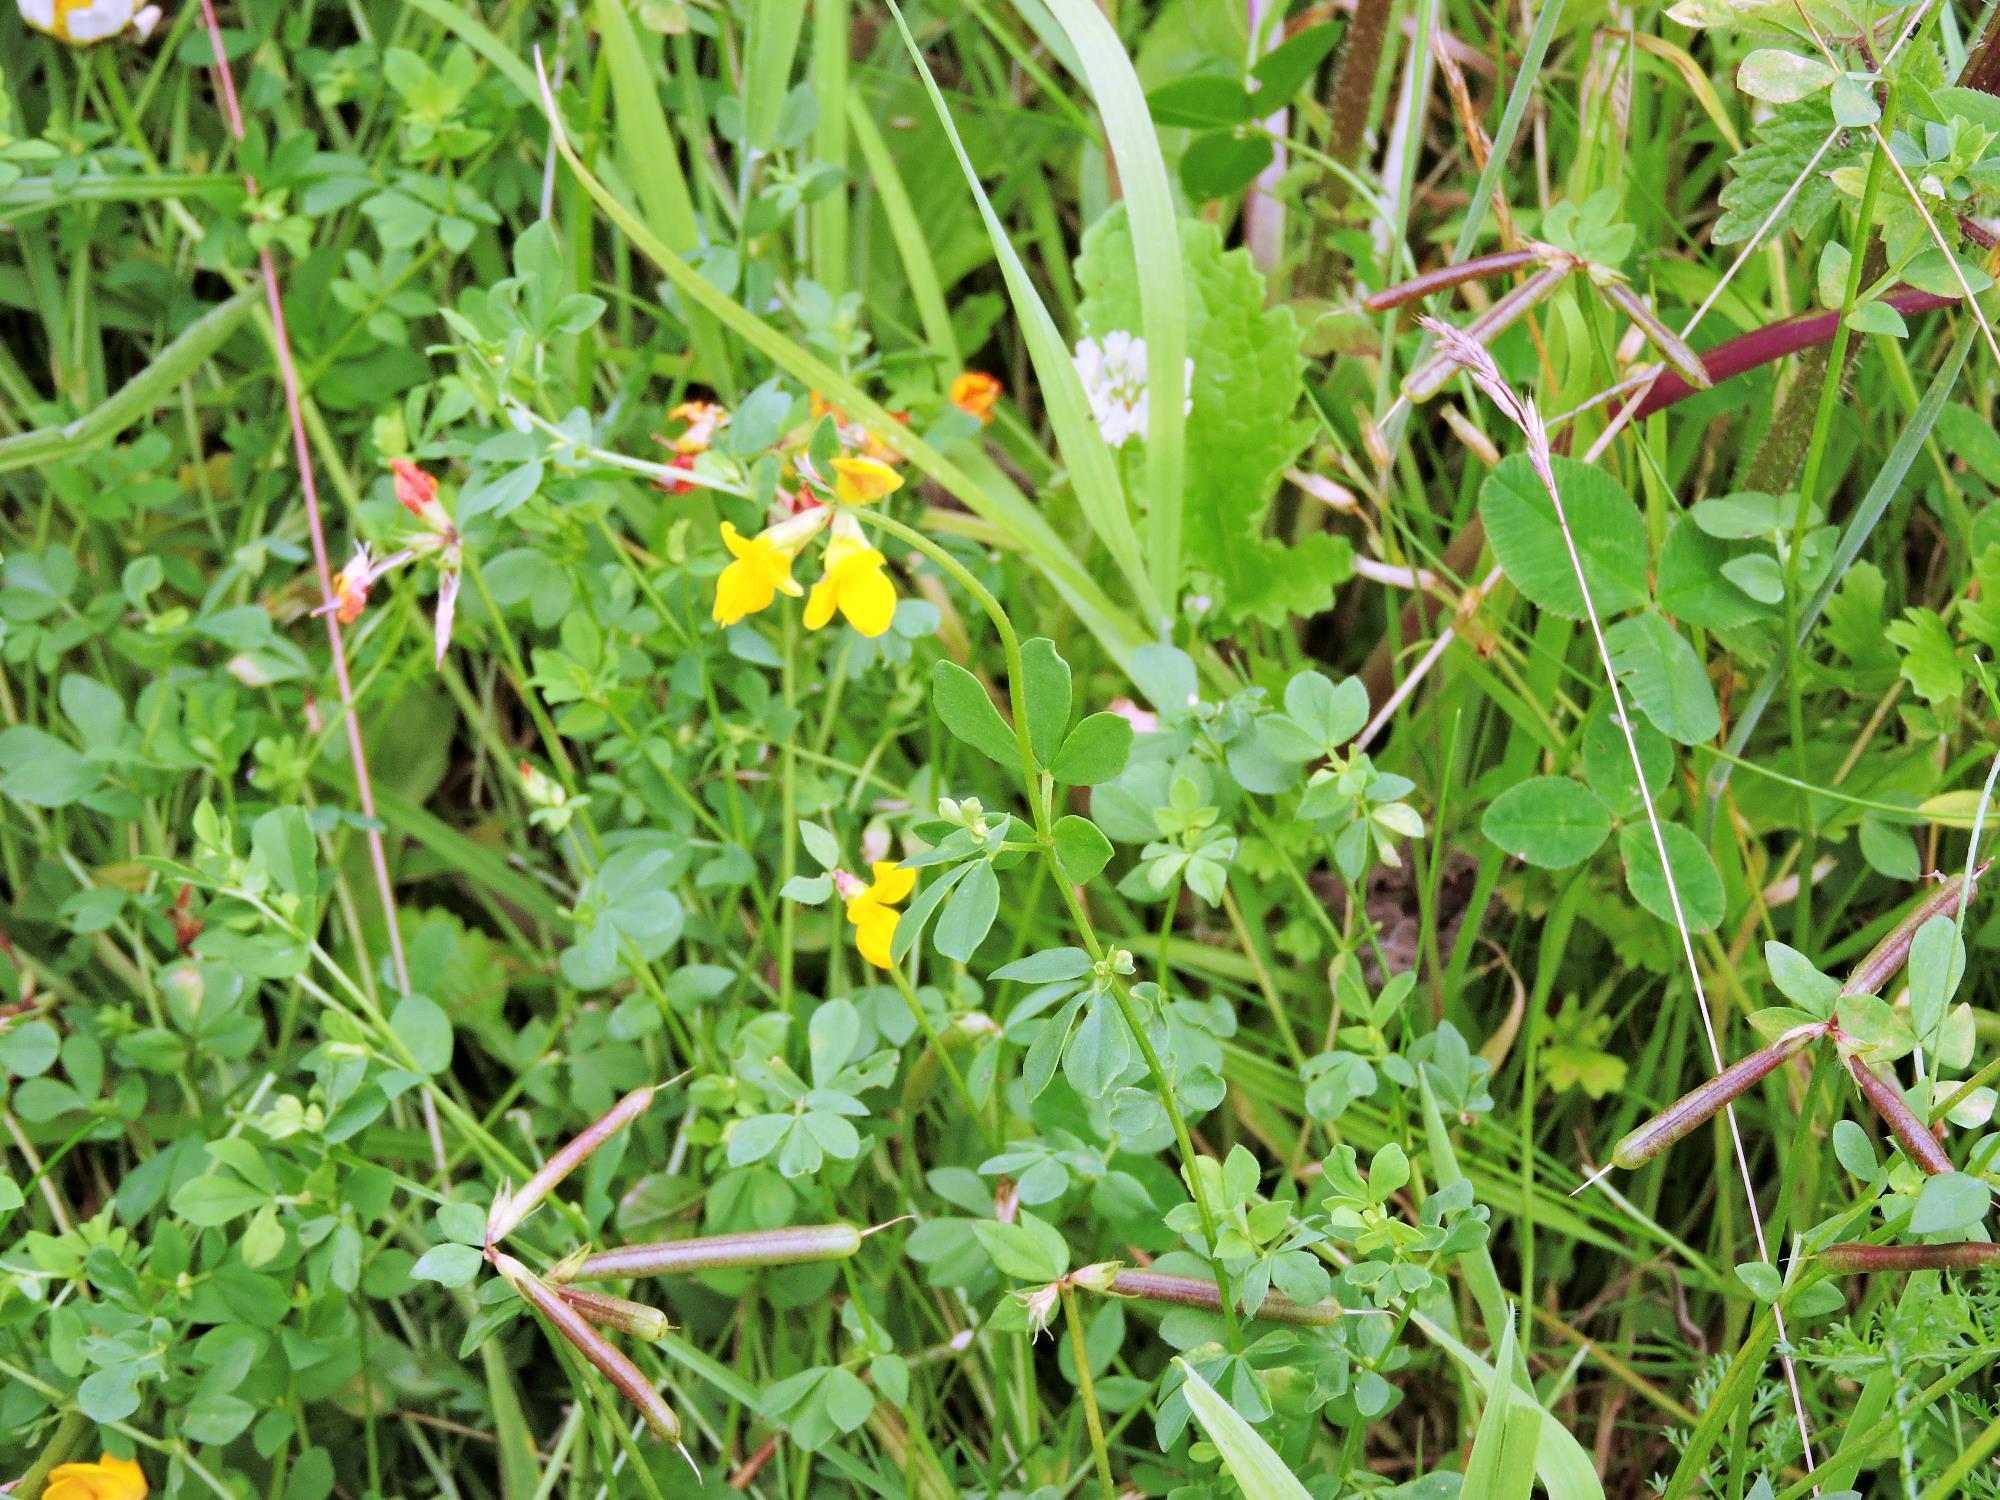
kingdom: Plantae
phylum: Tracheophyta
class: Magnoliopsida
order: Fabales
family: Fabaceae
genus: Lotus
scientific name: Lotus corniculatus
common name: Common bird's-foot-trefoil
